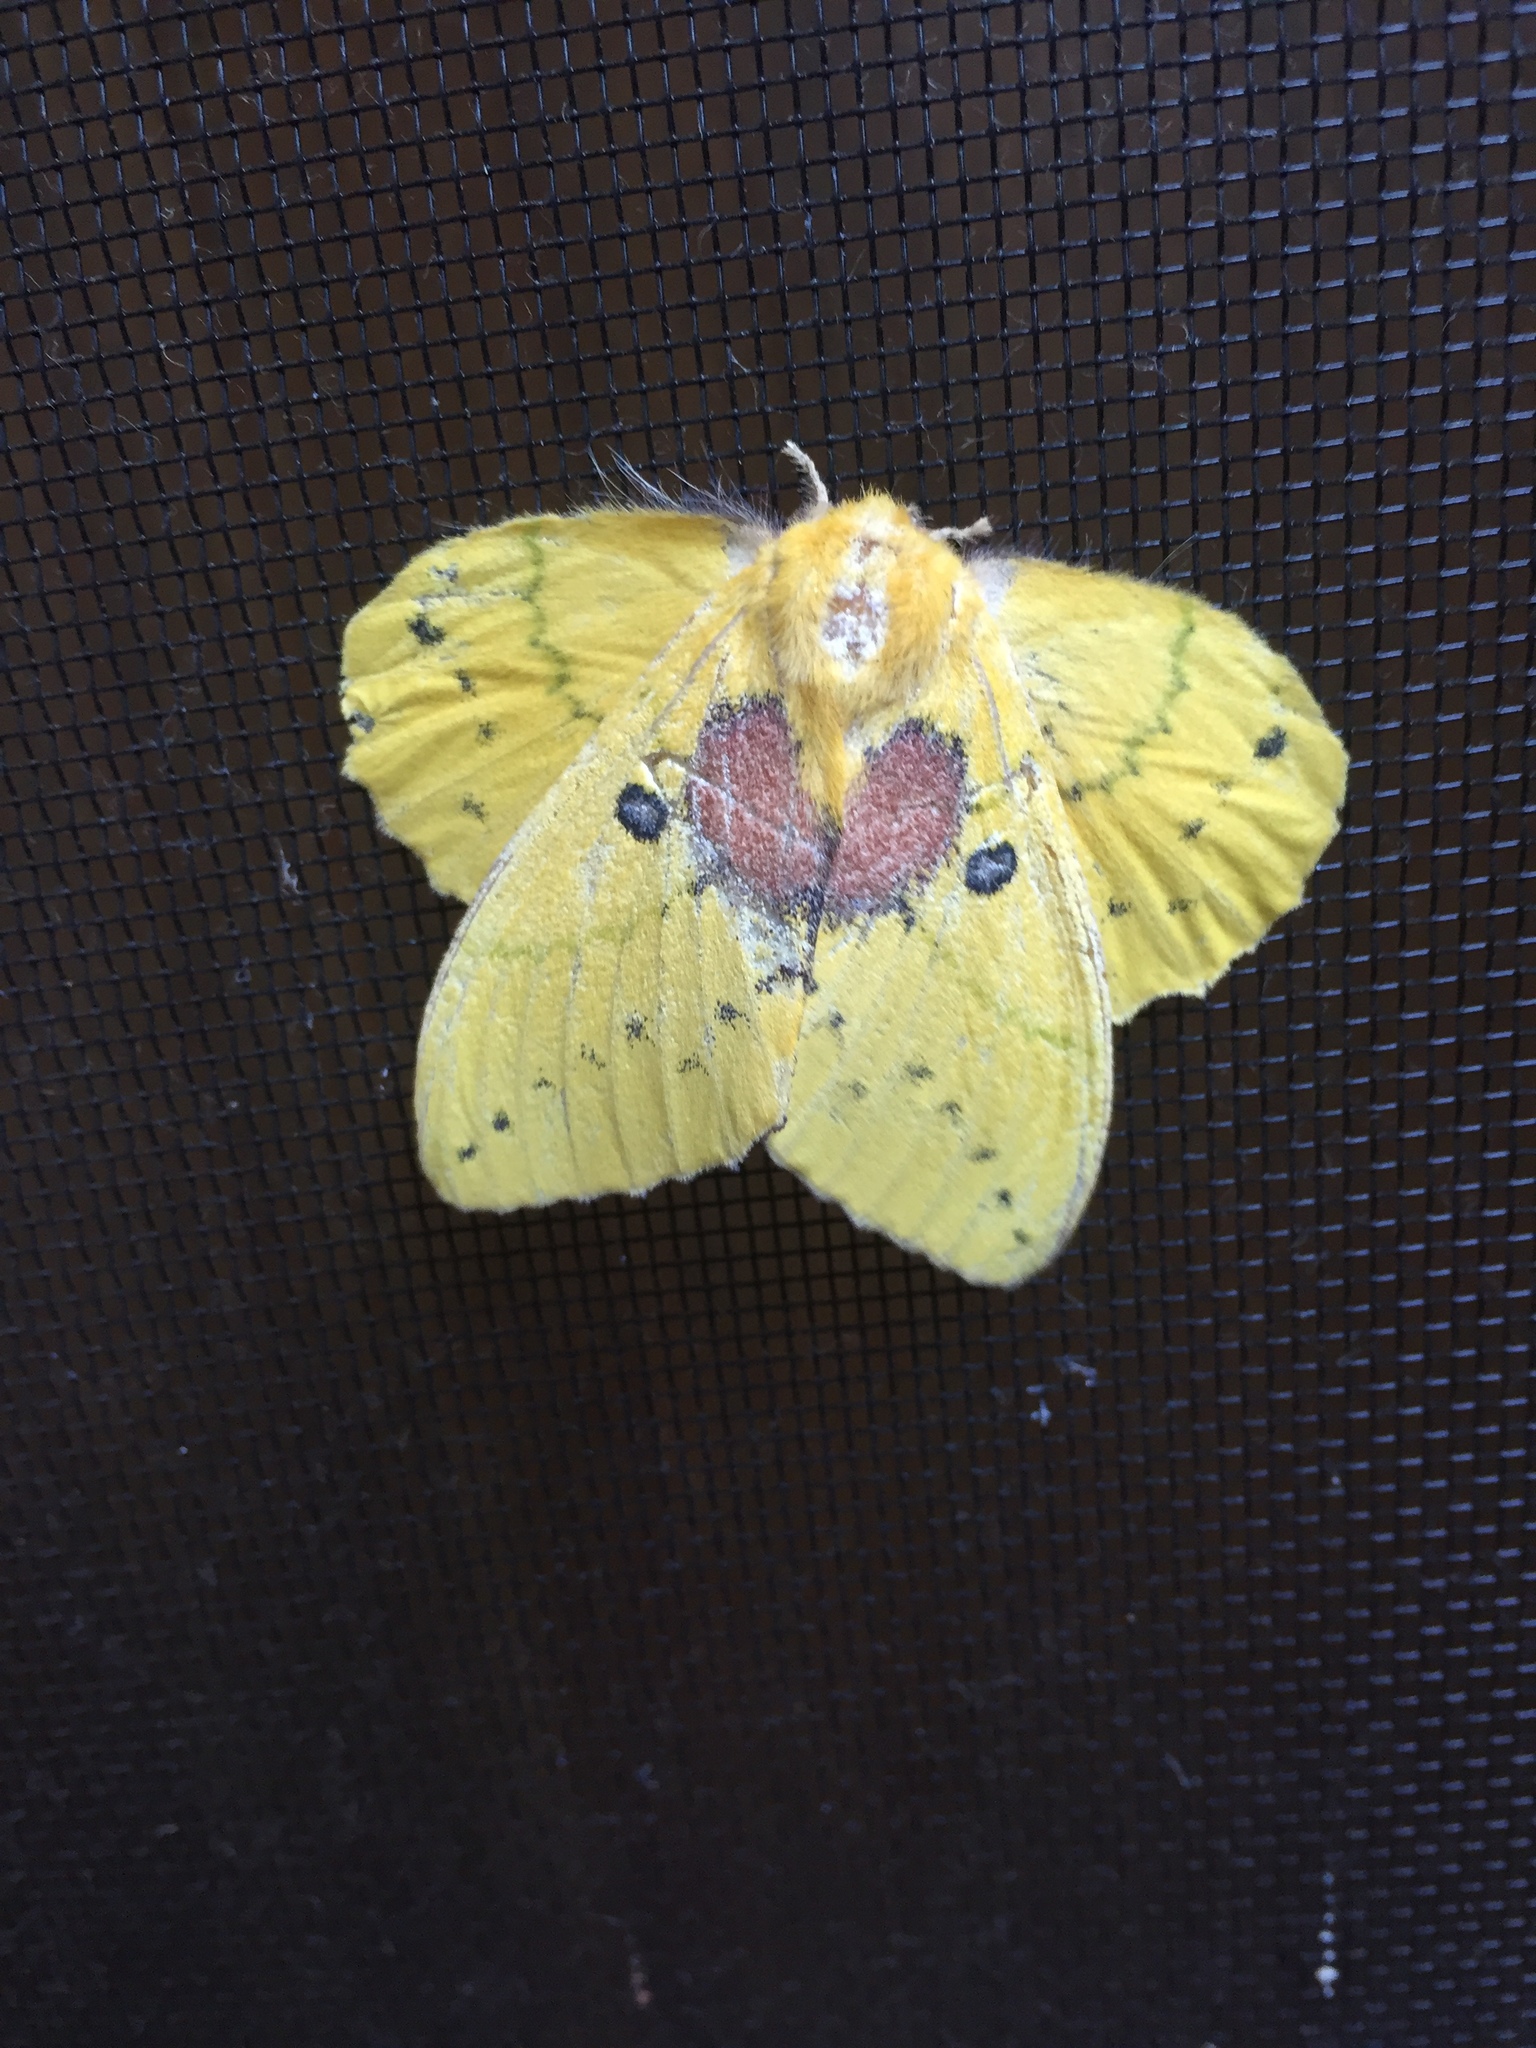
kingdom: Animalia
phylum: Arthropoda
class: Insecta
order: Lepidoptera
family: Lasiocampidae
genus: Trabala
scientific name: Trabala vishnou
